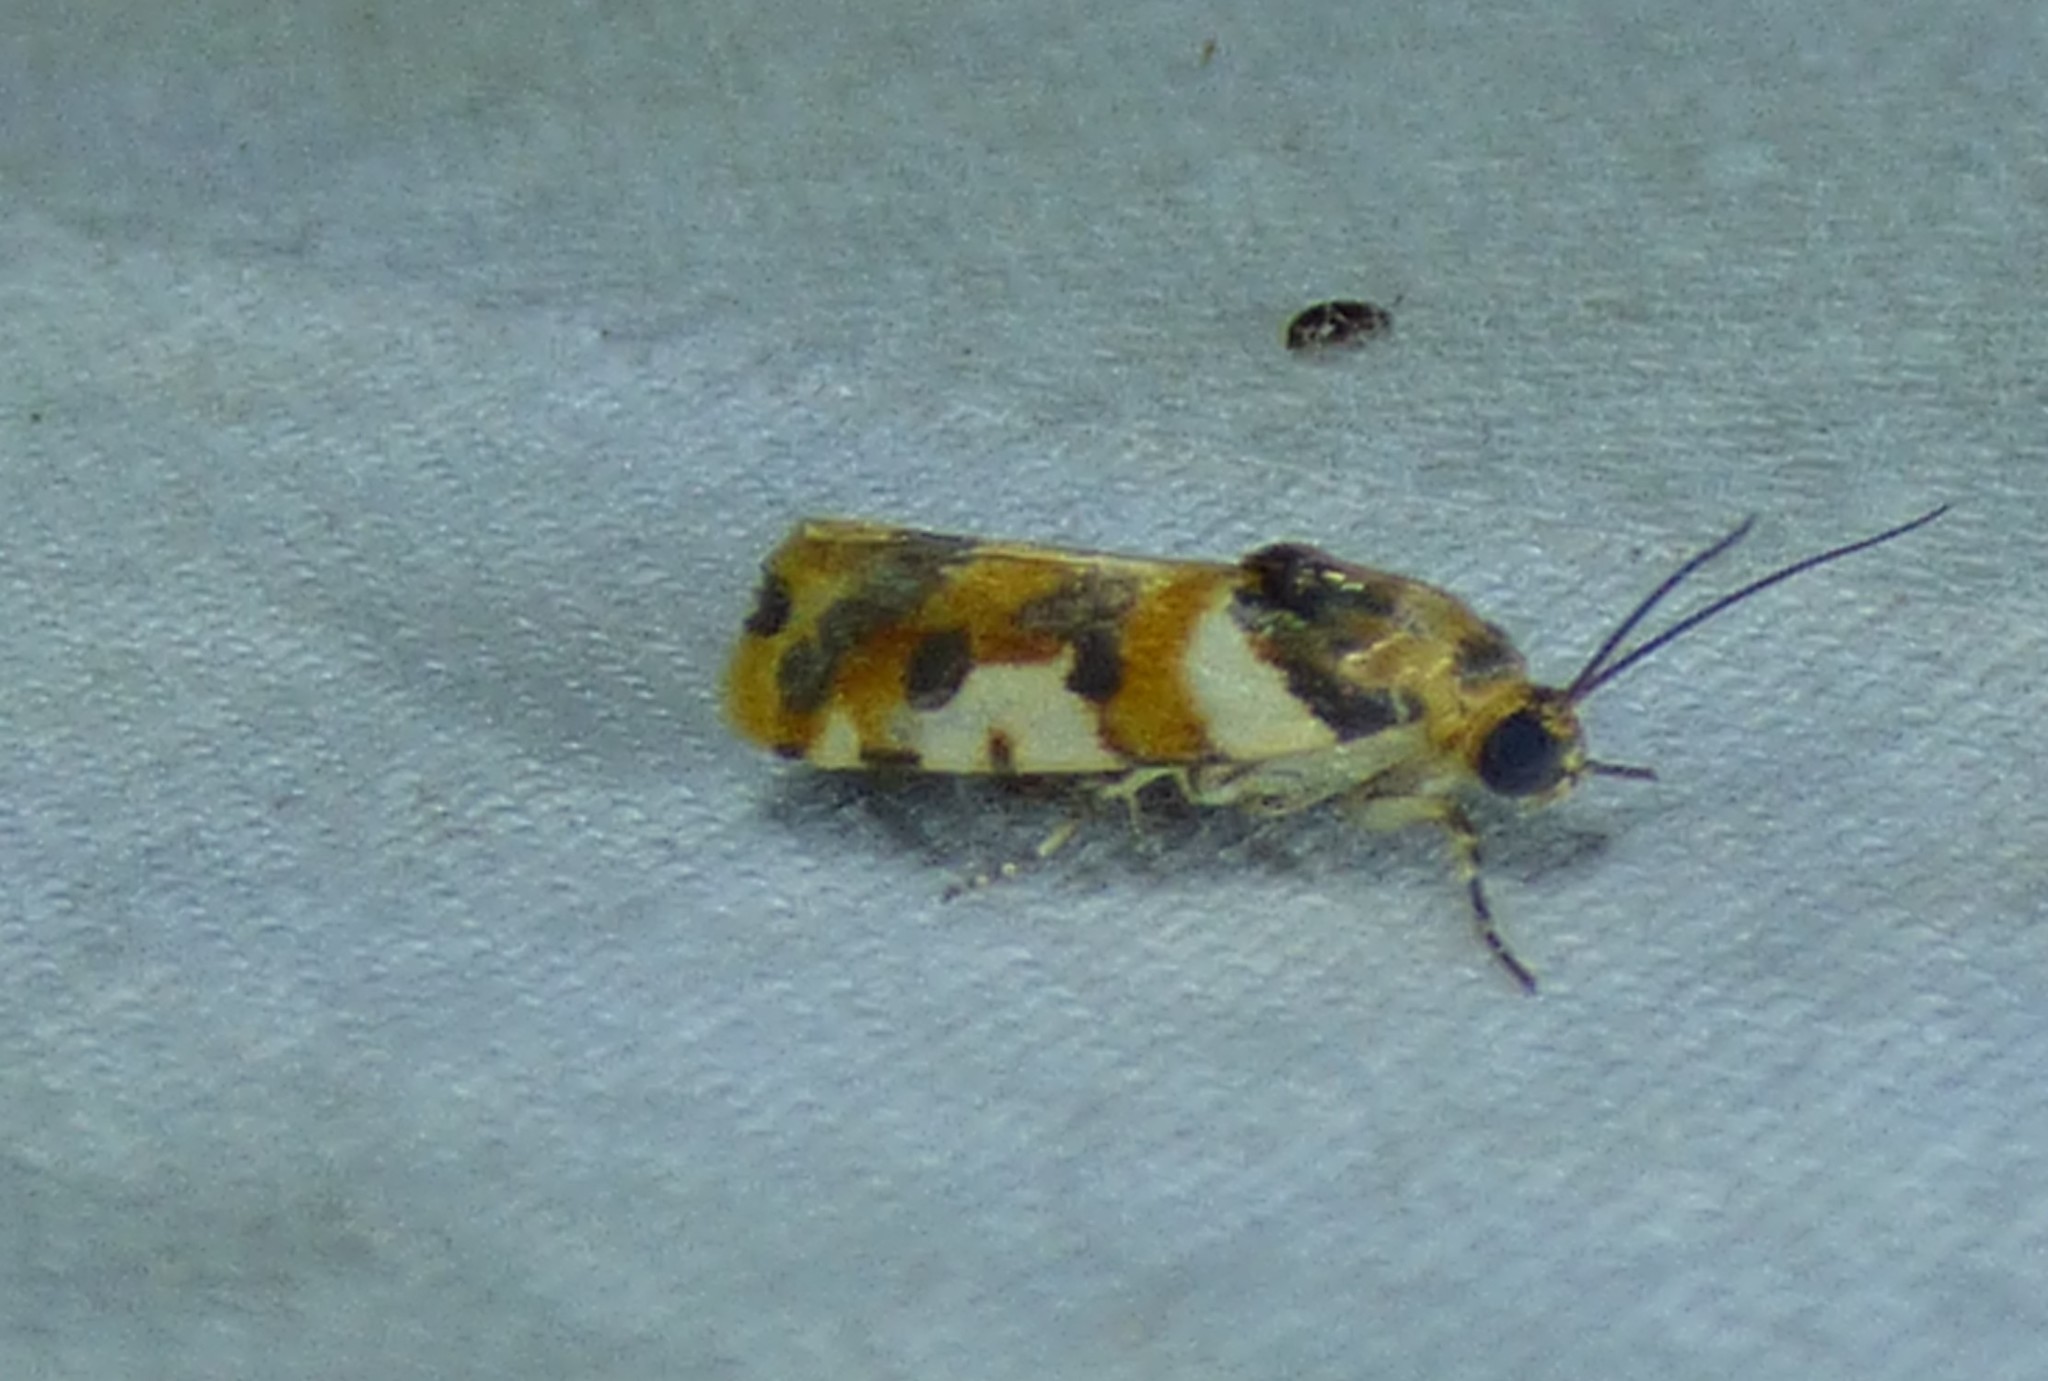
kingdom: Animalia
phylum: Arthropoda
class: Insecta
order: Lepidoptera
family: Noctuidae
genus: Acontia
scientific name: Acontia dama
